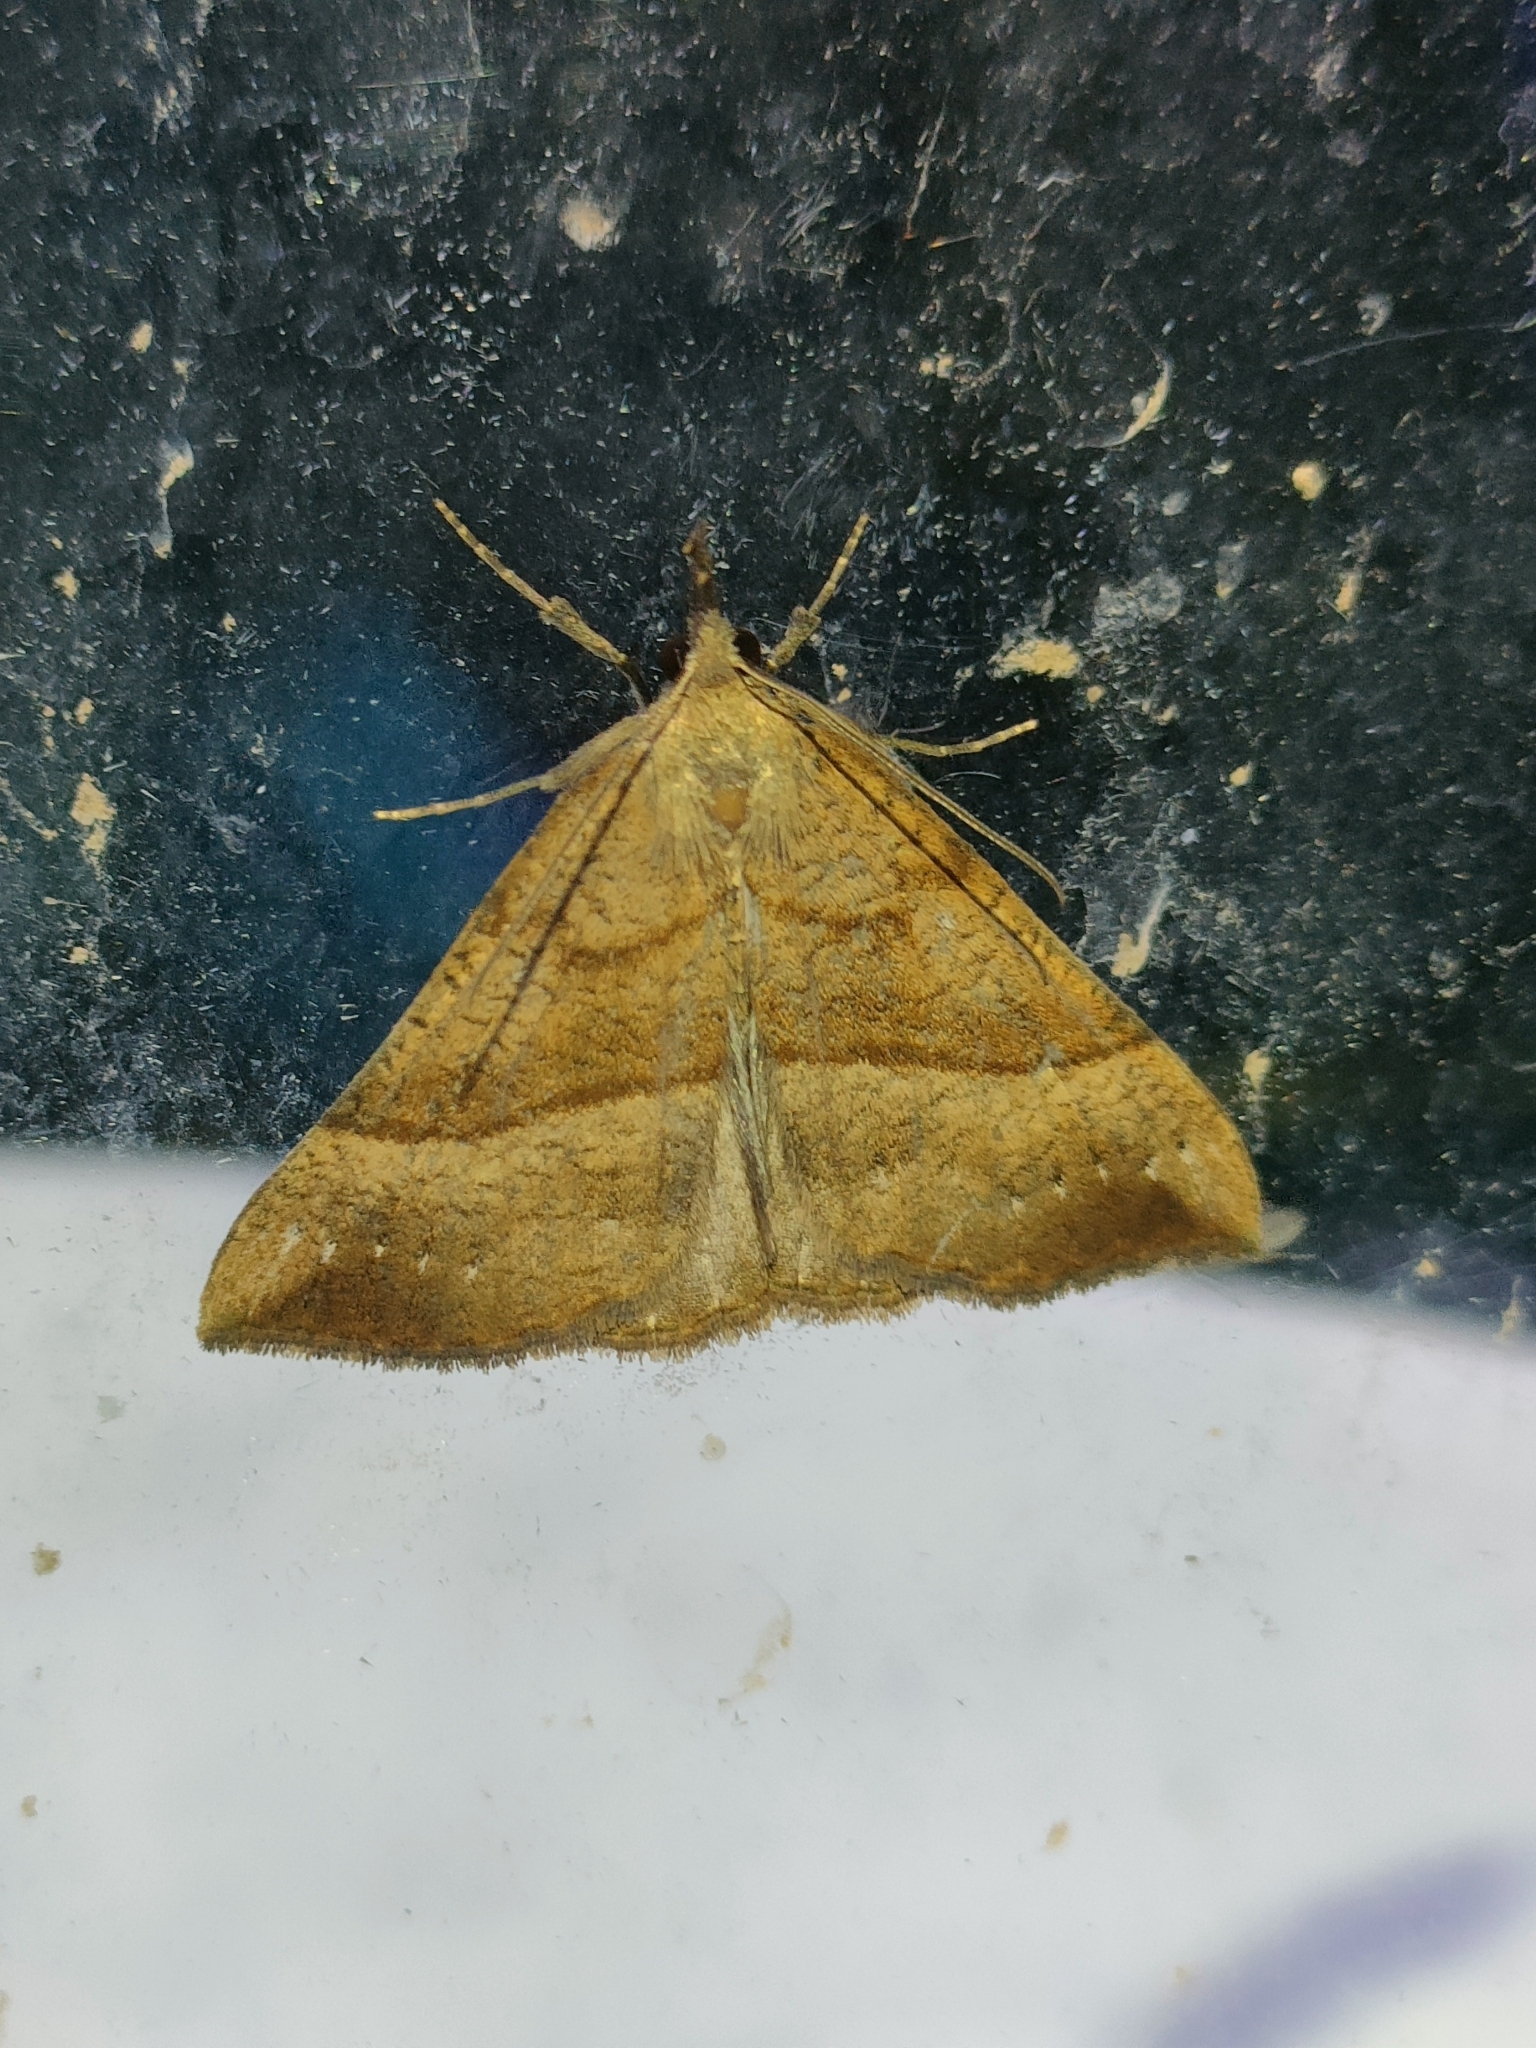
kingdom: Animalia
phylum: Arthropoda
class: Insecta
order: Lepidoptera
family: Erebidae
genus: Hypena
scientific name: Hypena proboscidalis
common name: Snout
